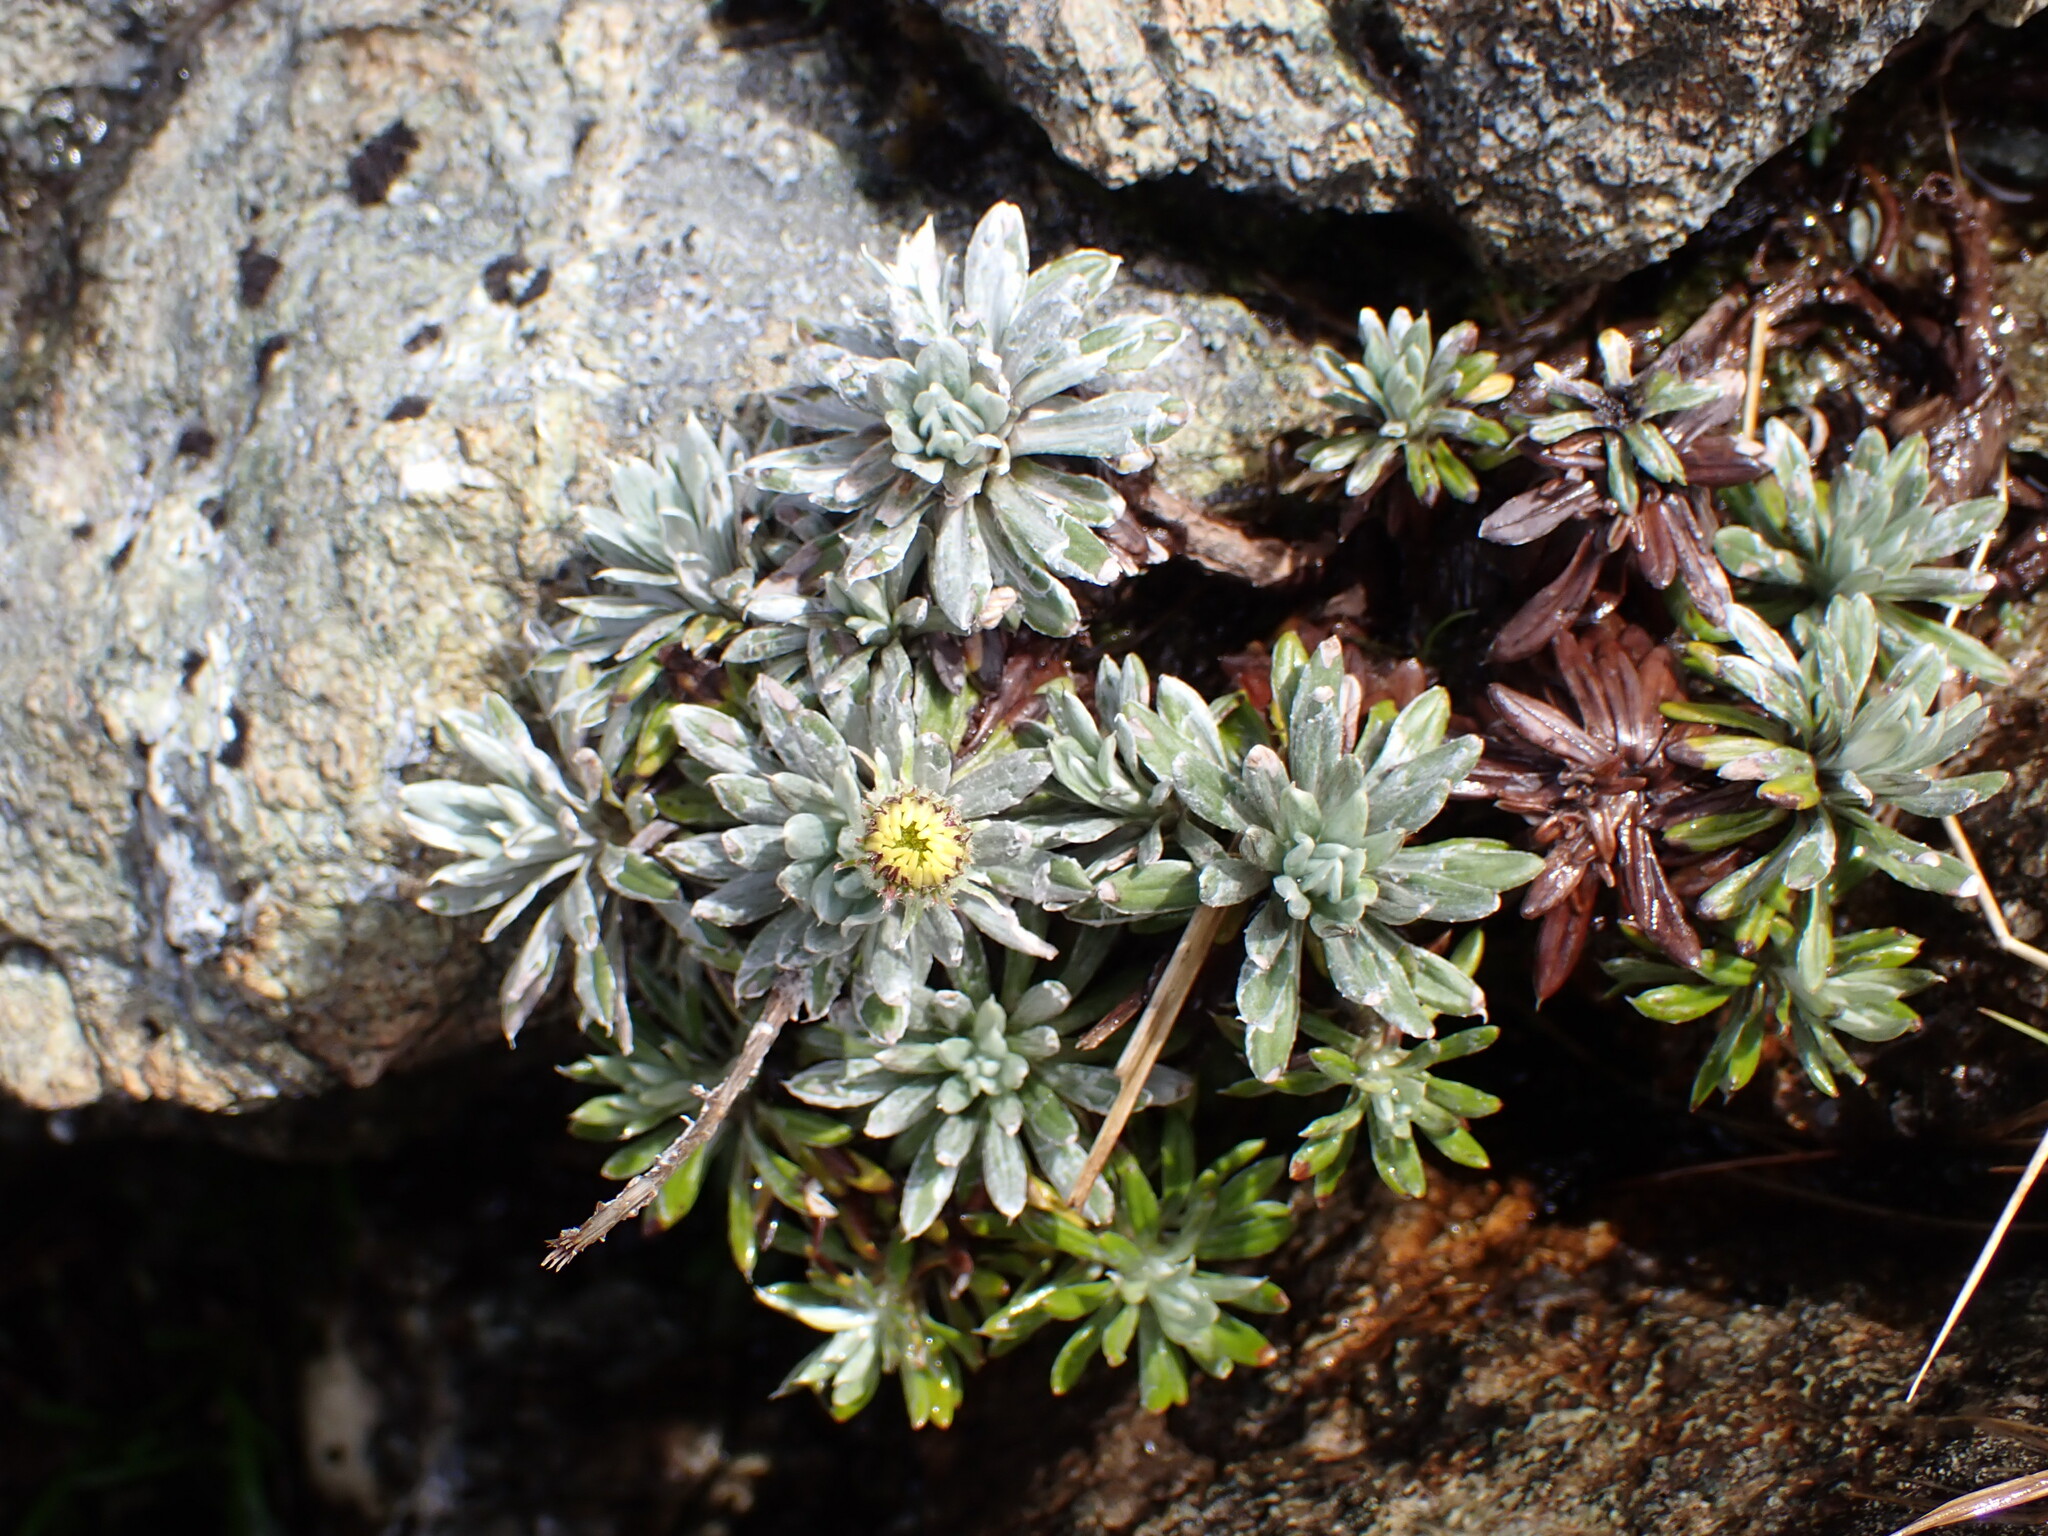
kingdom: Plantae
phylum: Tracheophyta
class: Magnoliopsida
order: Asterales
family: Asteraceae
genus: Celmisia
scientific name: Celmisia hectorii
